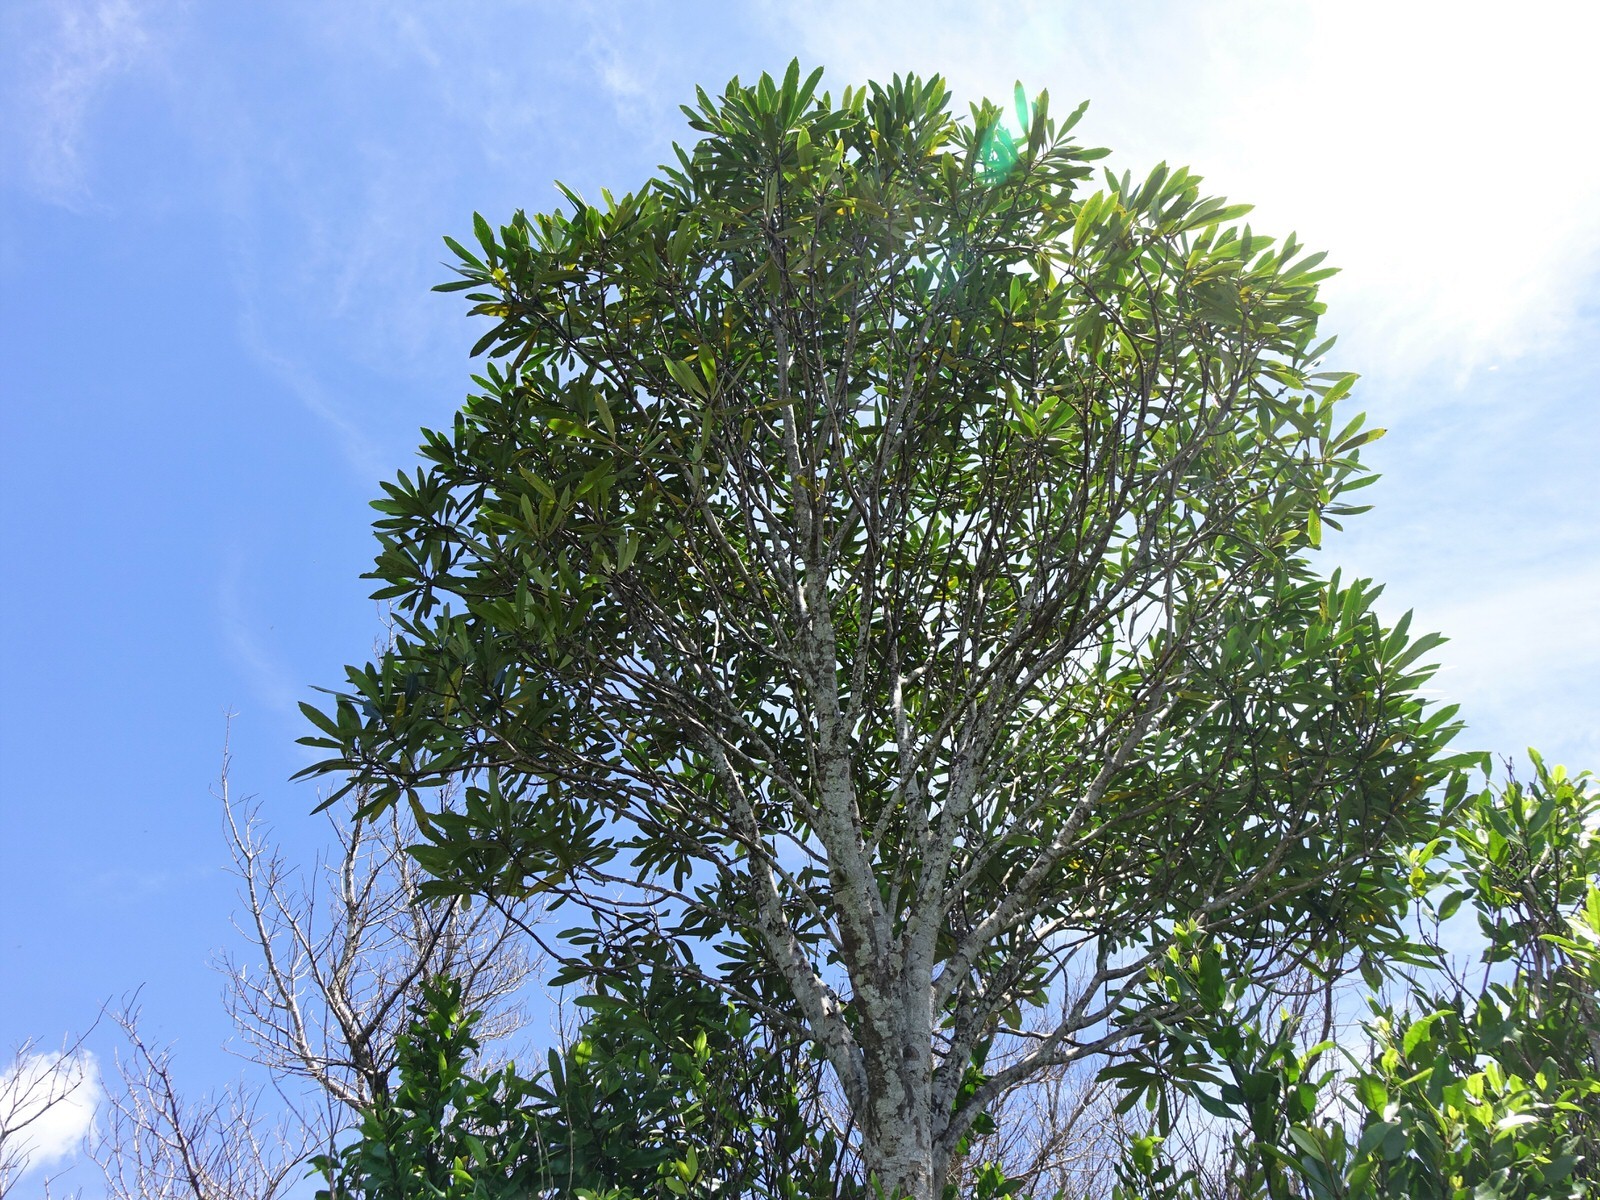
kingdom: Plantae
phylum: Tracheophyta
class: Magnoliopsida
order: Apiales
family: Araliaceae
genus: Pseudopanax
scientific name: Pseudopanax crassifolius
